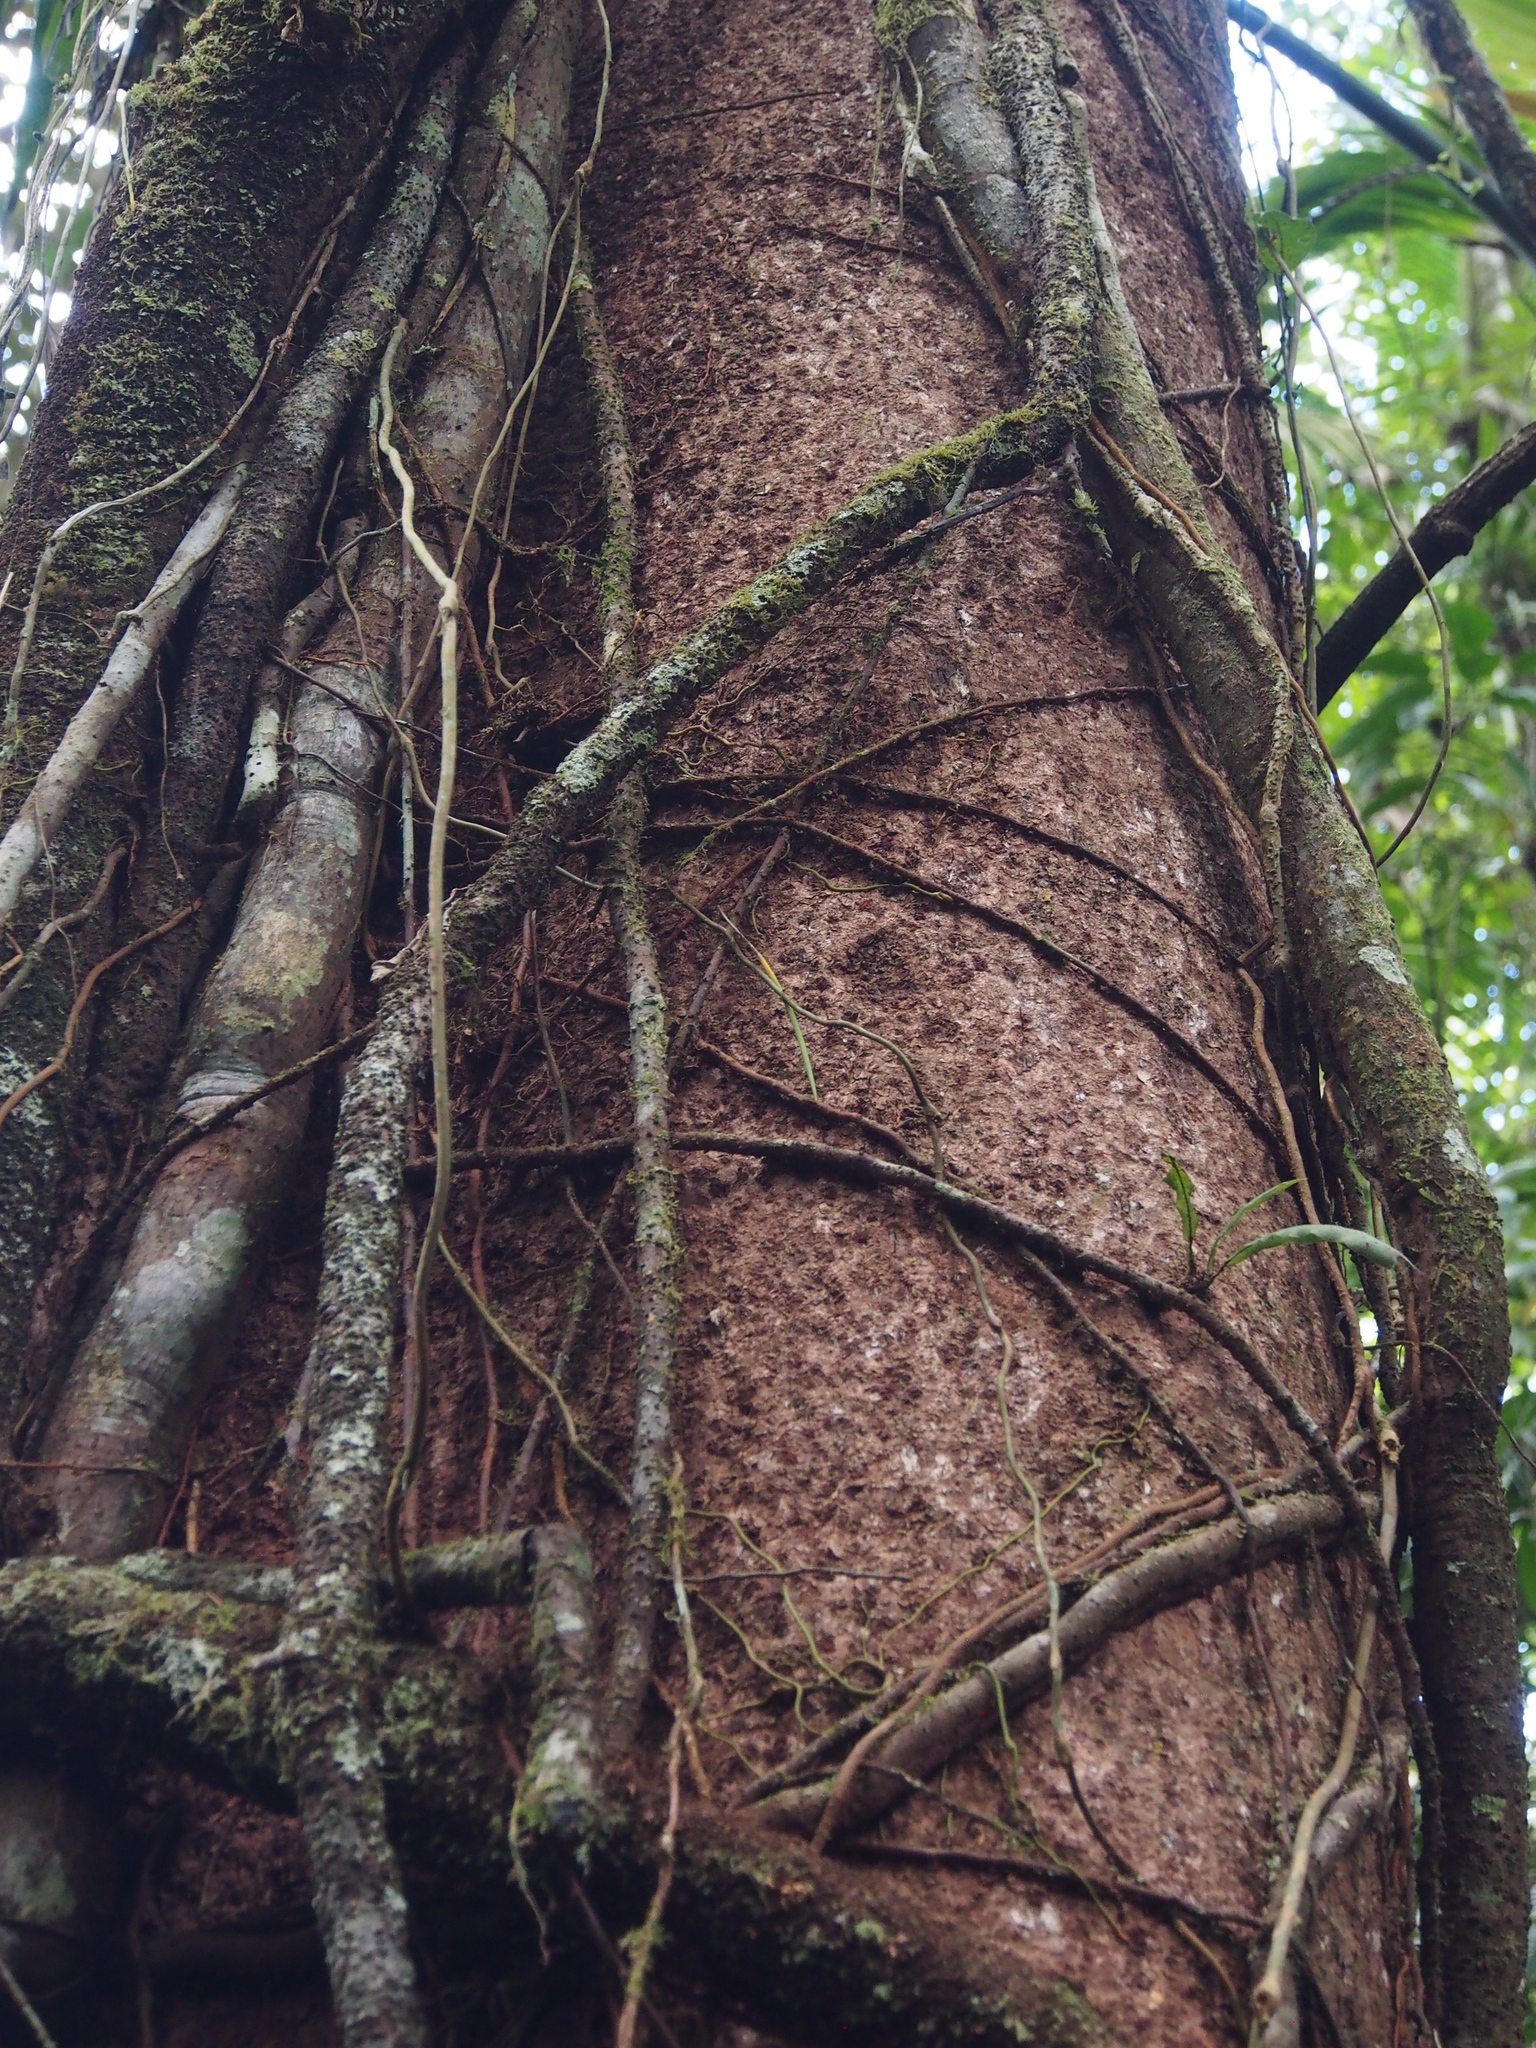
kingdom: Plantae
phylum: Tracheophyta
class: Magnoliopsida
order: Malpighiales
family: Humiriaceae
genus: Sacoglottis
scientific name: Sacoglottis trichogyna
